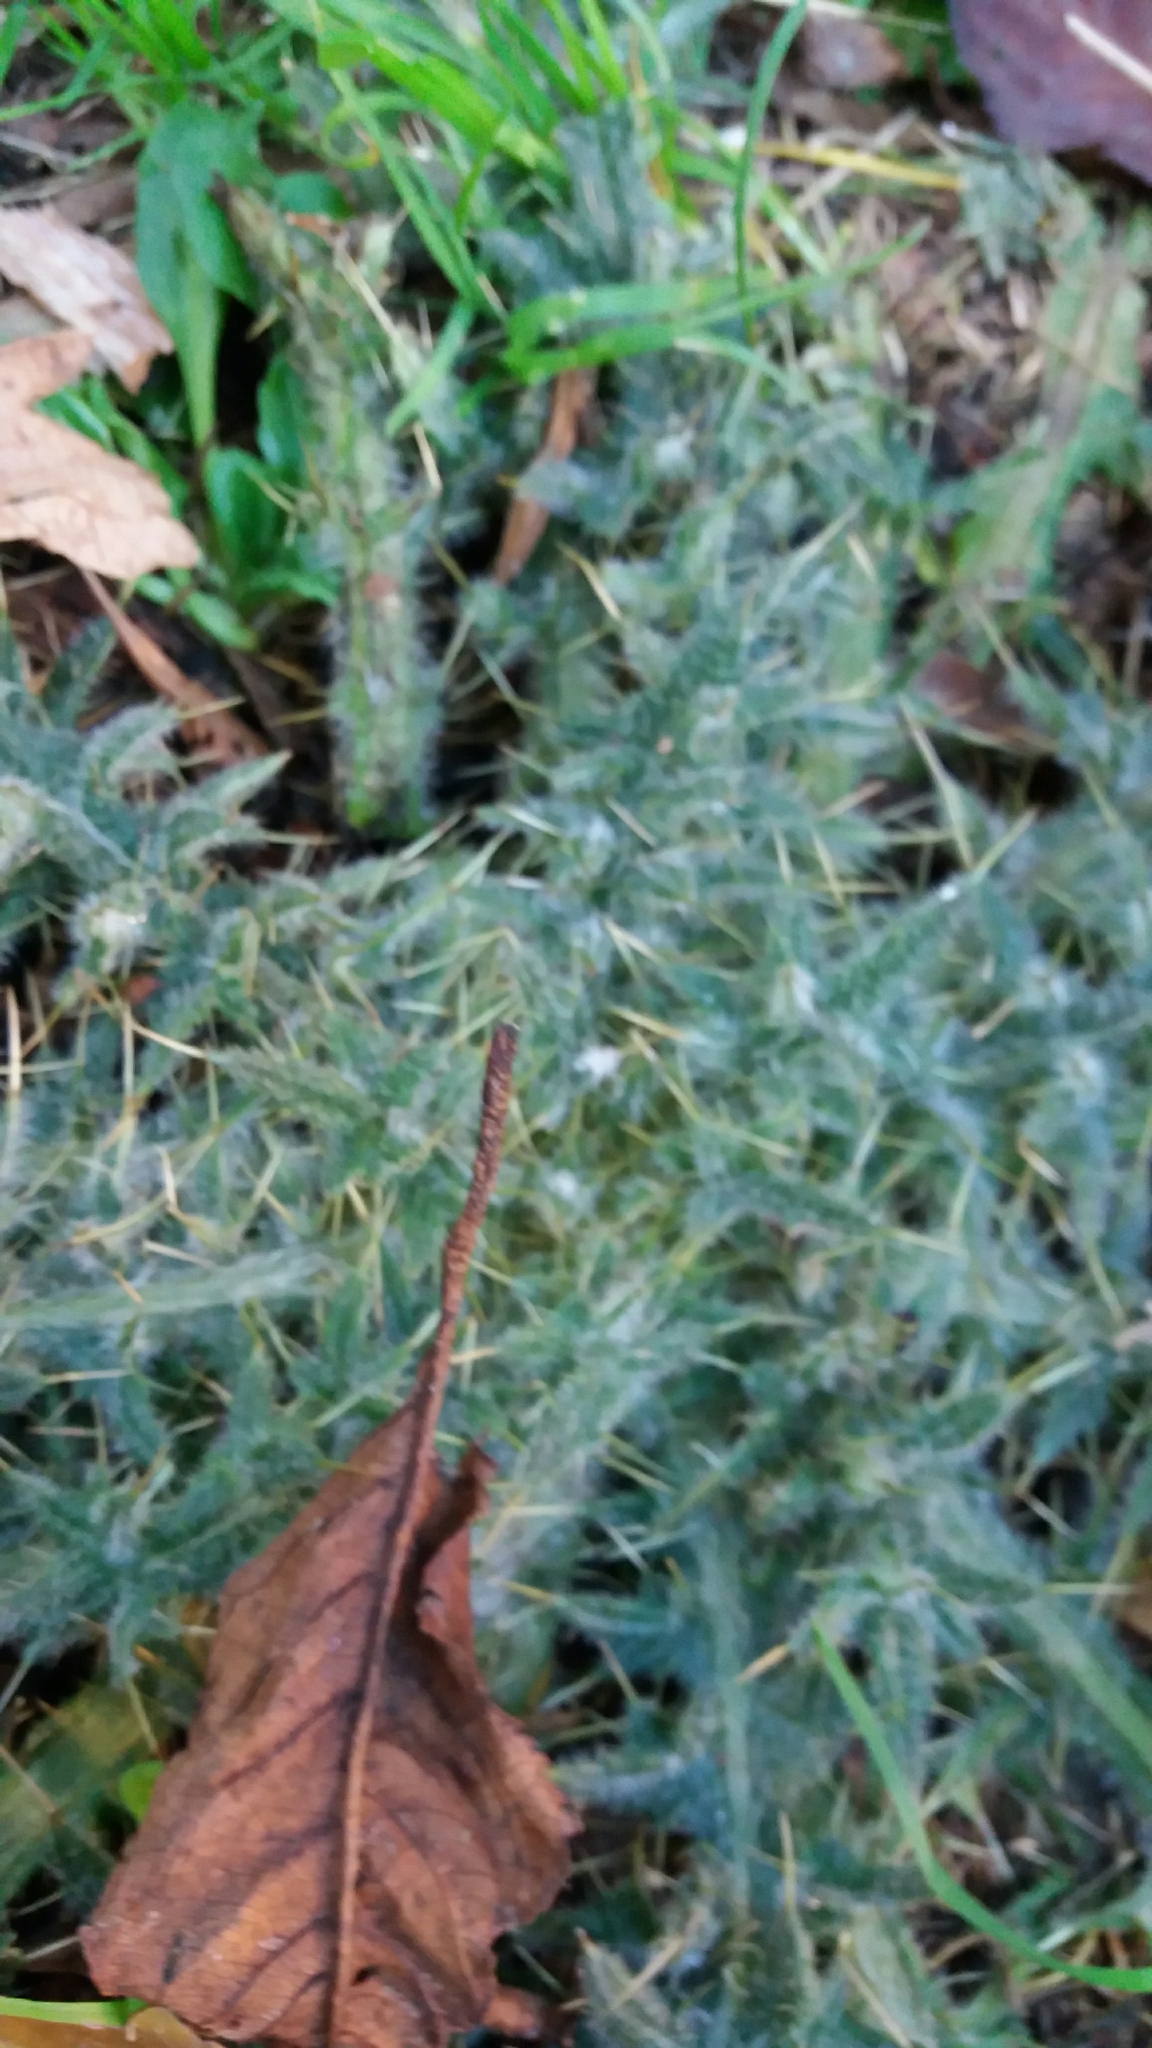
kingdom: Plantae
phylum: Tracheophyta
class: Magnoliopsida
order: Asterales
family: Asteraceae
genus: Cirsium
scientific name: Cirsium vulgare
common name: Bull thistle
